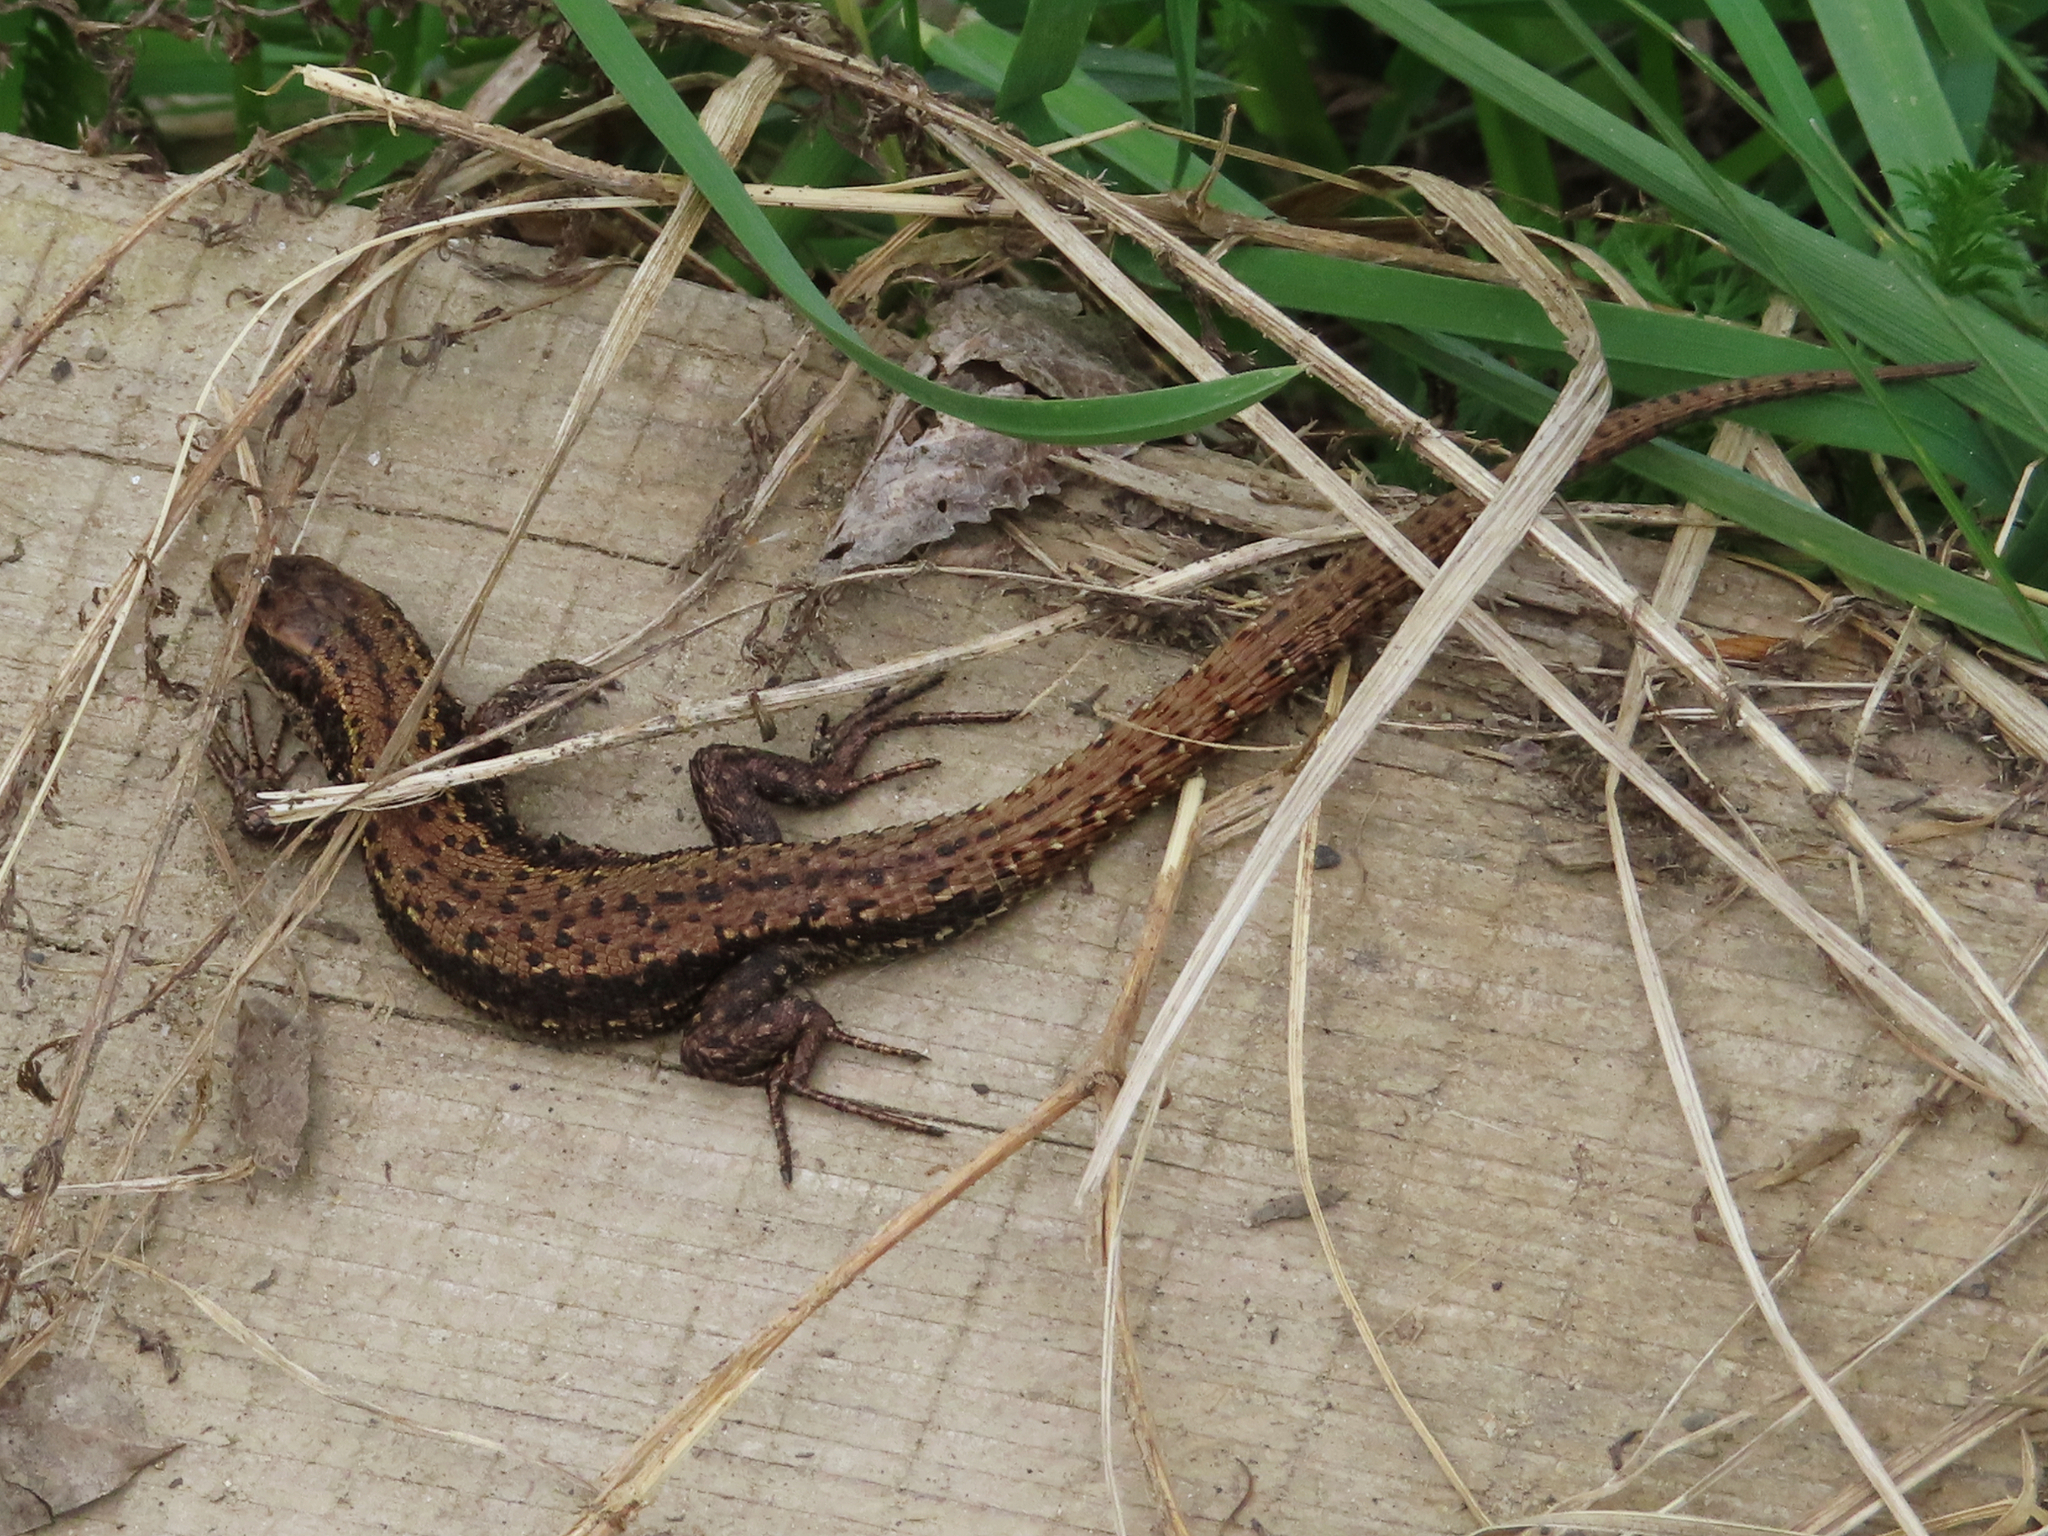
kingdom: Animalia
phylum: Chordata
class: Squamata
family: Lacertidae
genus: Zootoca
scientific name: Zootoca vivipara
